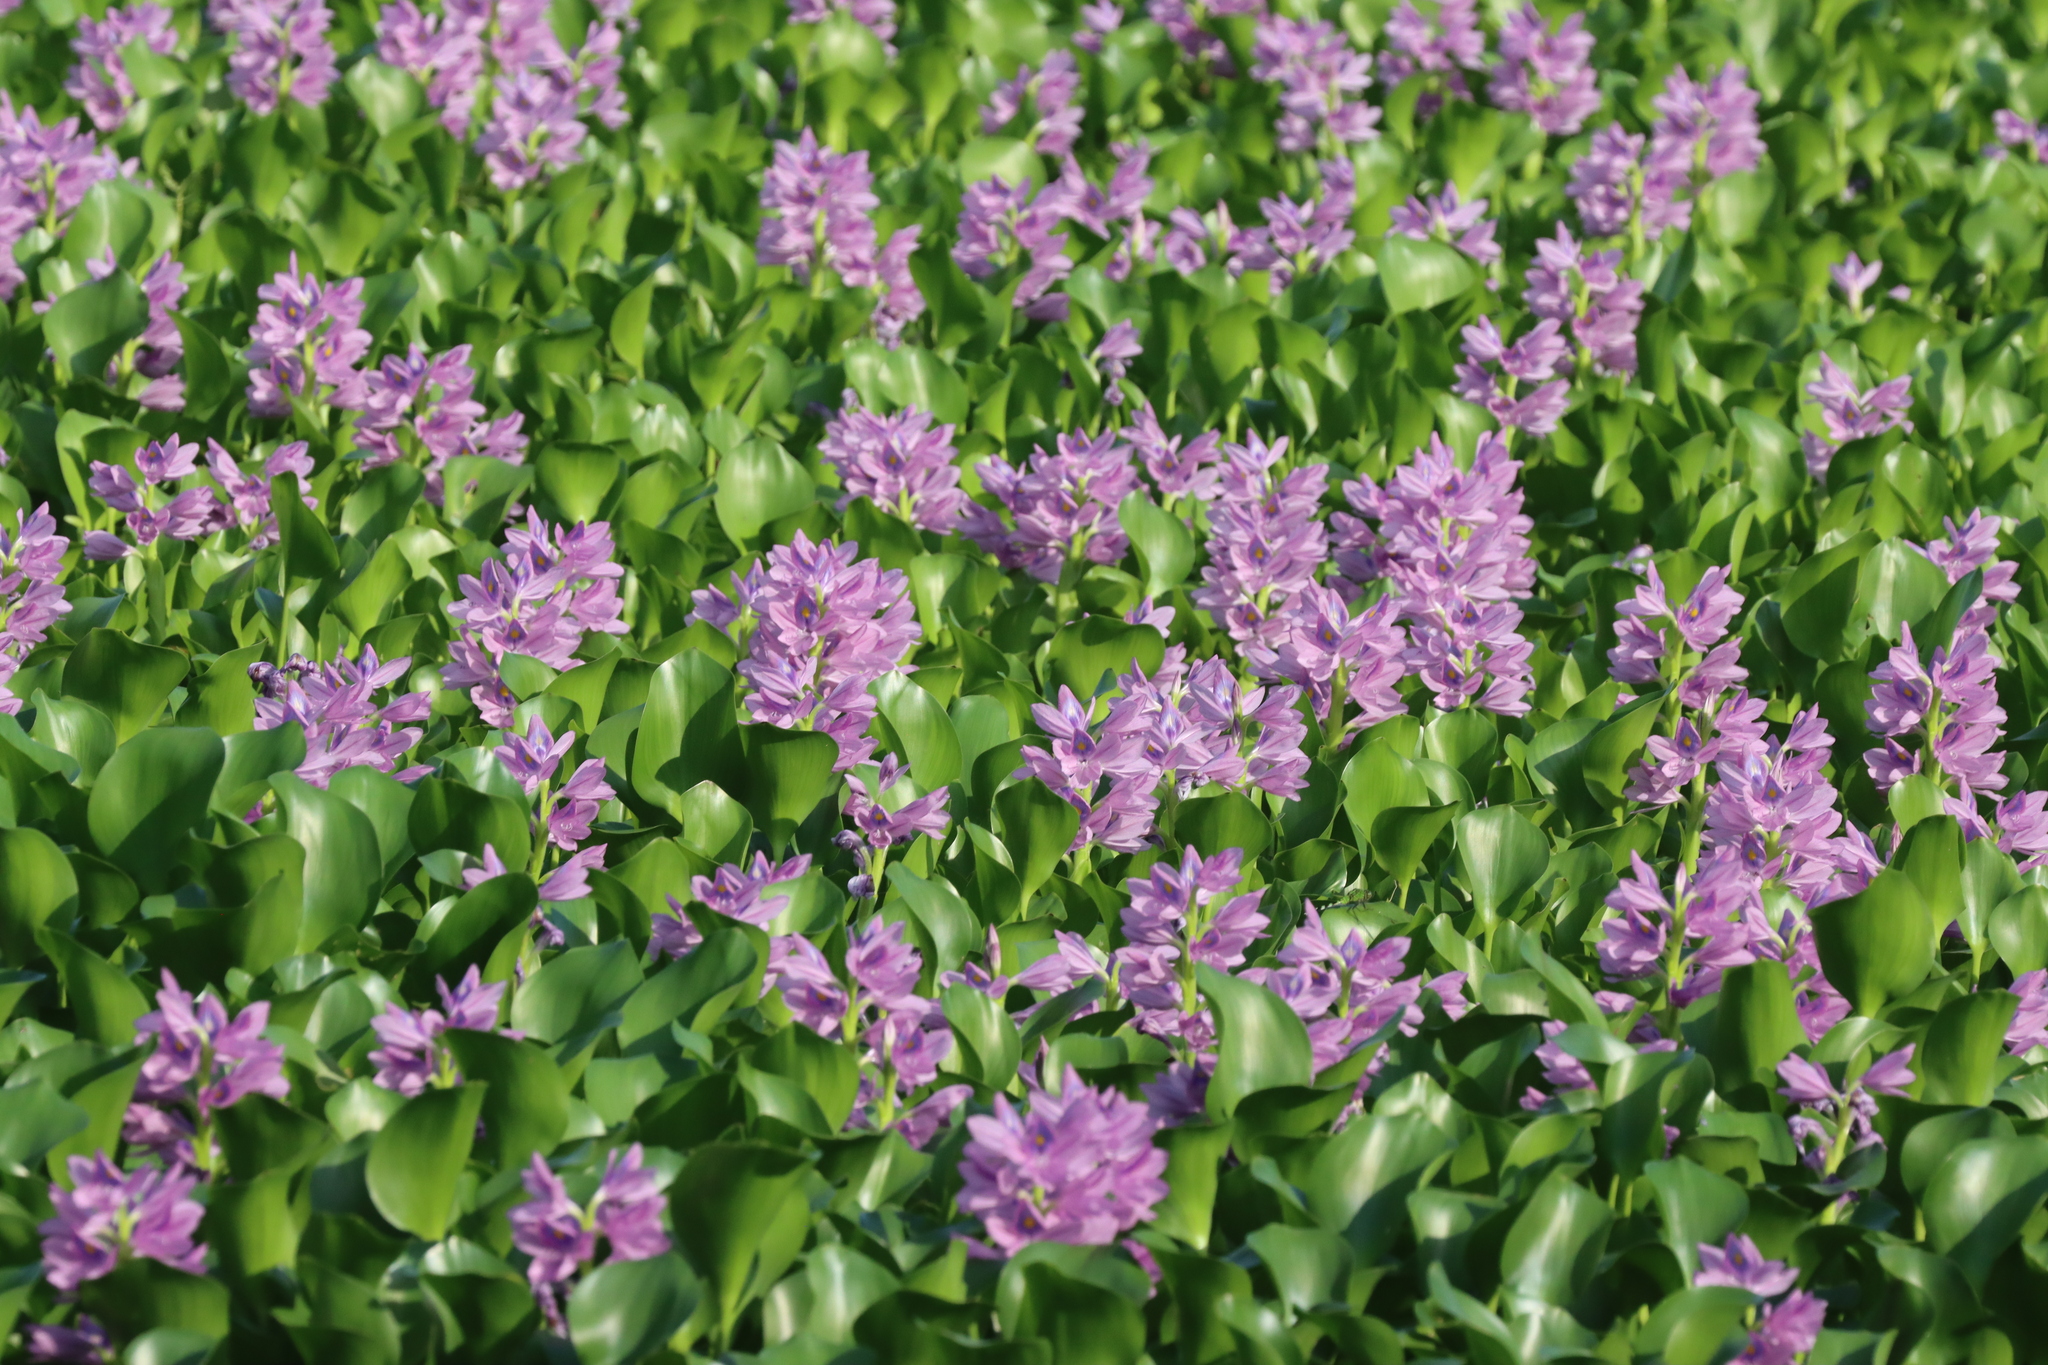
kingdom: Plantae
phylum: Tracheophyta
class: Liliopsida
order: Commelinales
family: Pontederiaceae
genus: Pontederia
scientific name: Pontederia crassipes
